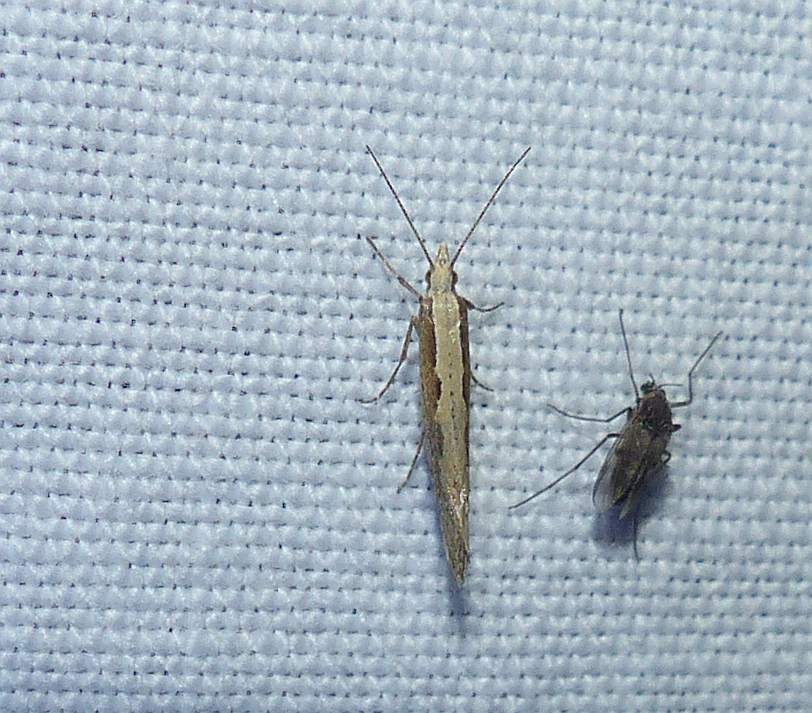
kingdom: Animalia
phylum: Arthropoda
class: Insecta
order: Lepidoptera
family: Plutellidae
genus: Plutella
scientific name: Plutella xylostella
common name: Diamond-back moth
